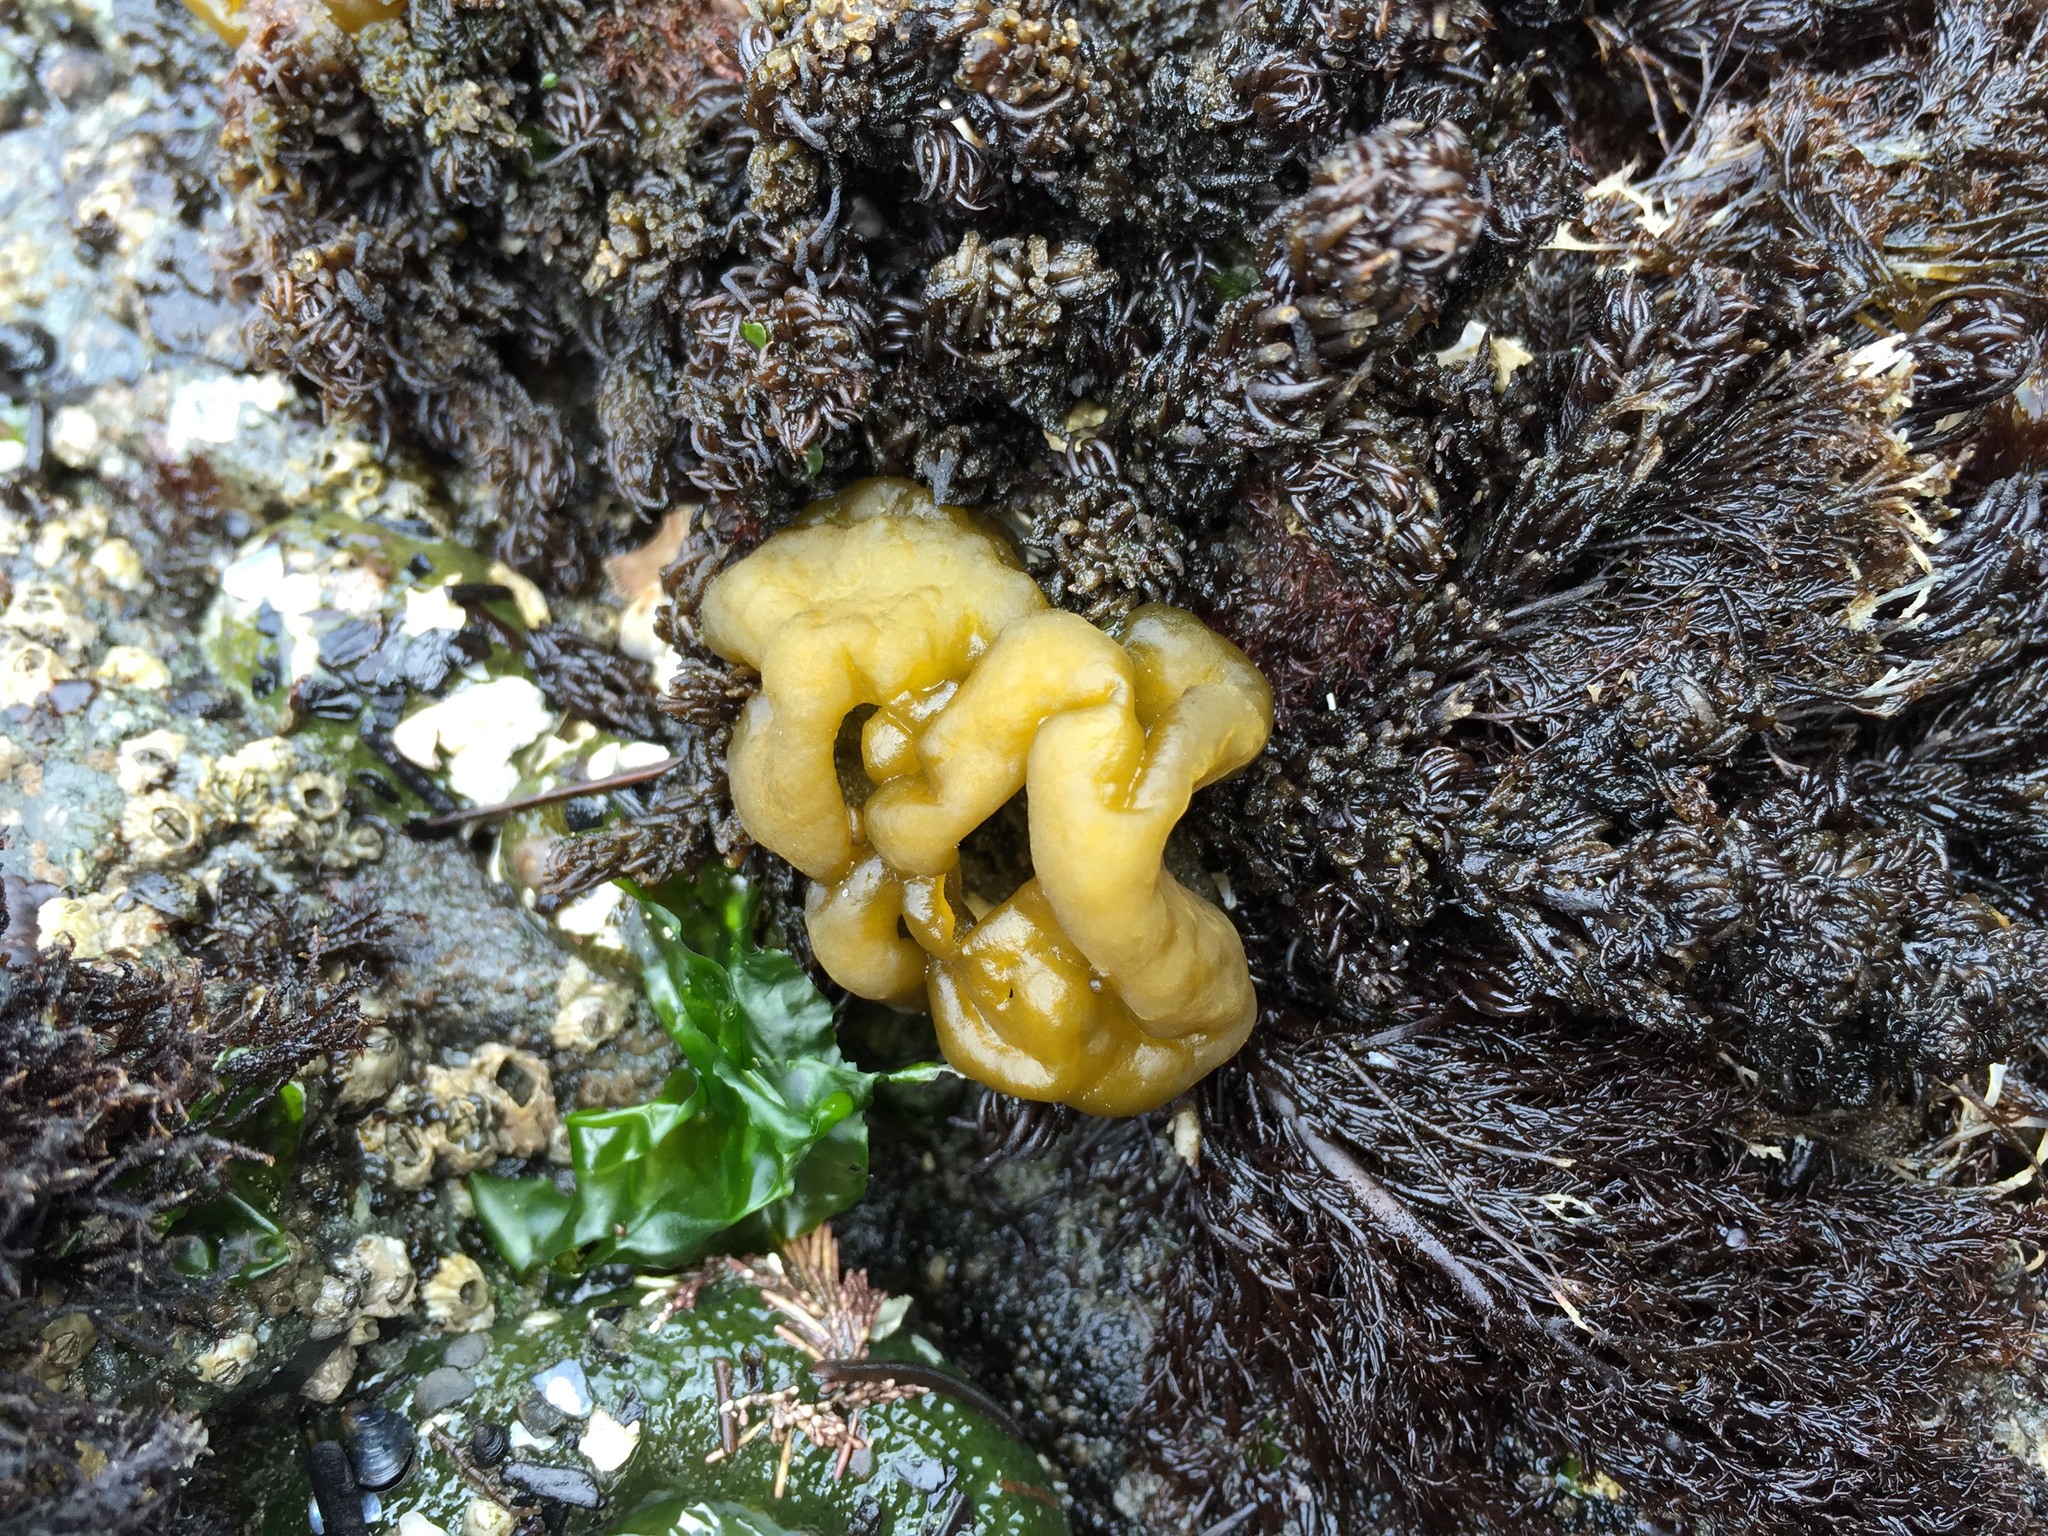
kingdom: Chromista
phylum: Ochrophyta
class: Phaeophyceae
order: Ectocarpales
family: Chordariaceae
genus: Leathesia
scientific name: Leathesia marina
